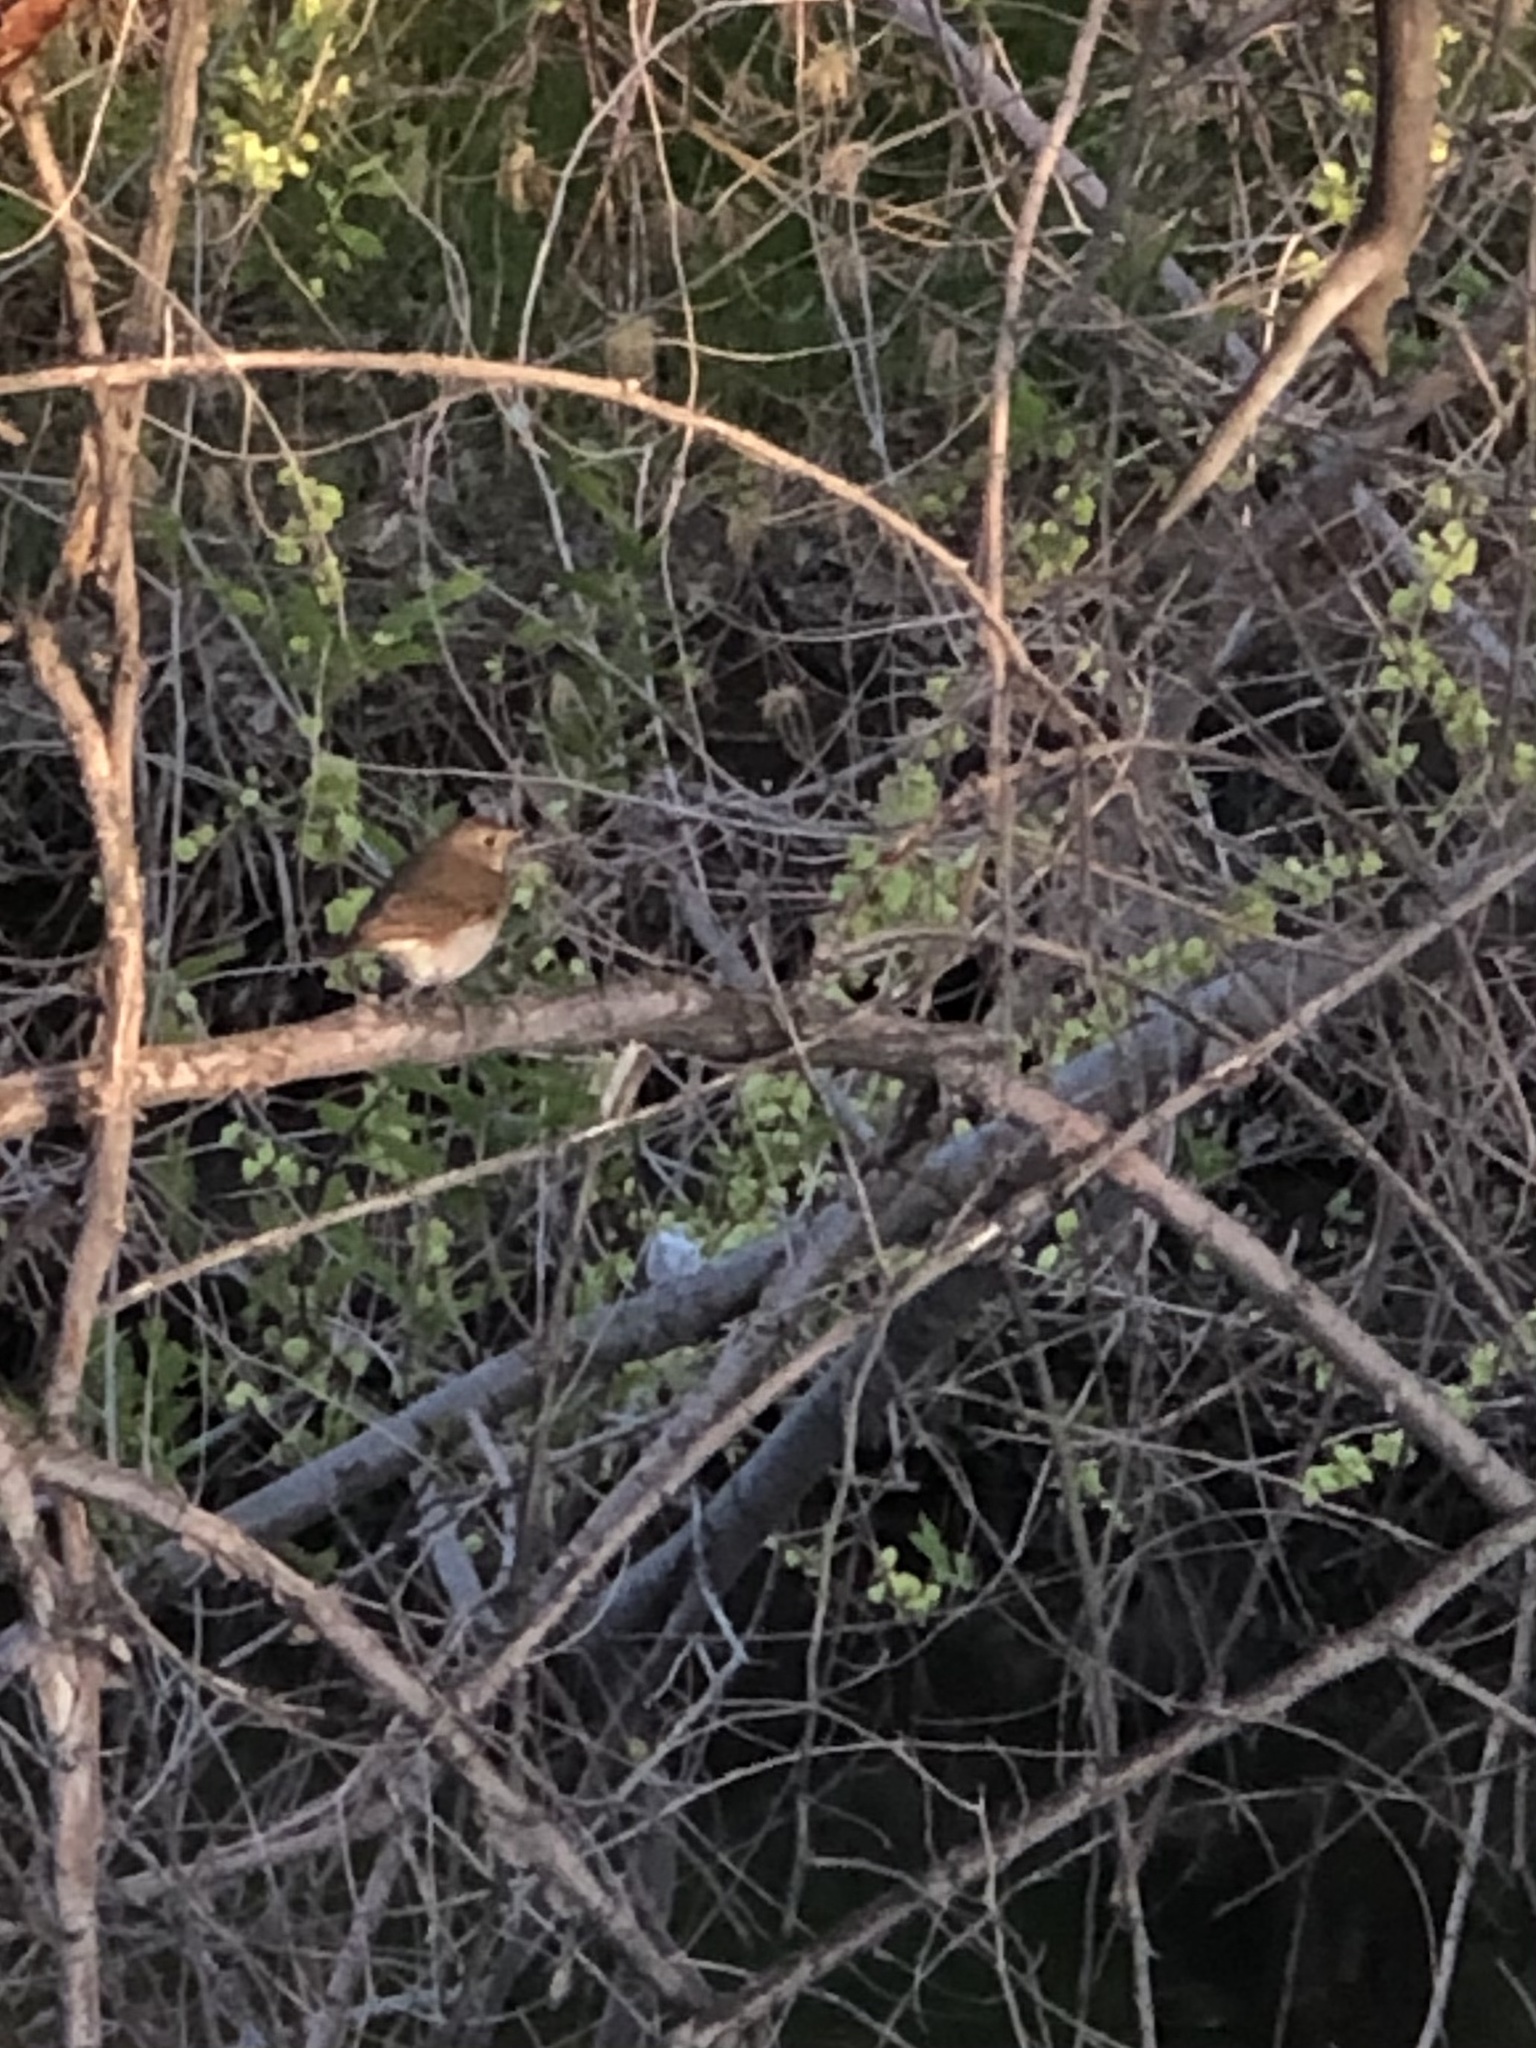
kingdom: Animalia
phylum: Chordata
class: Aves
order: Passeriformes
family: Turdidae
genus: Catharus
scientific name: Catharus guttatus
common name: Hermit thrush
